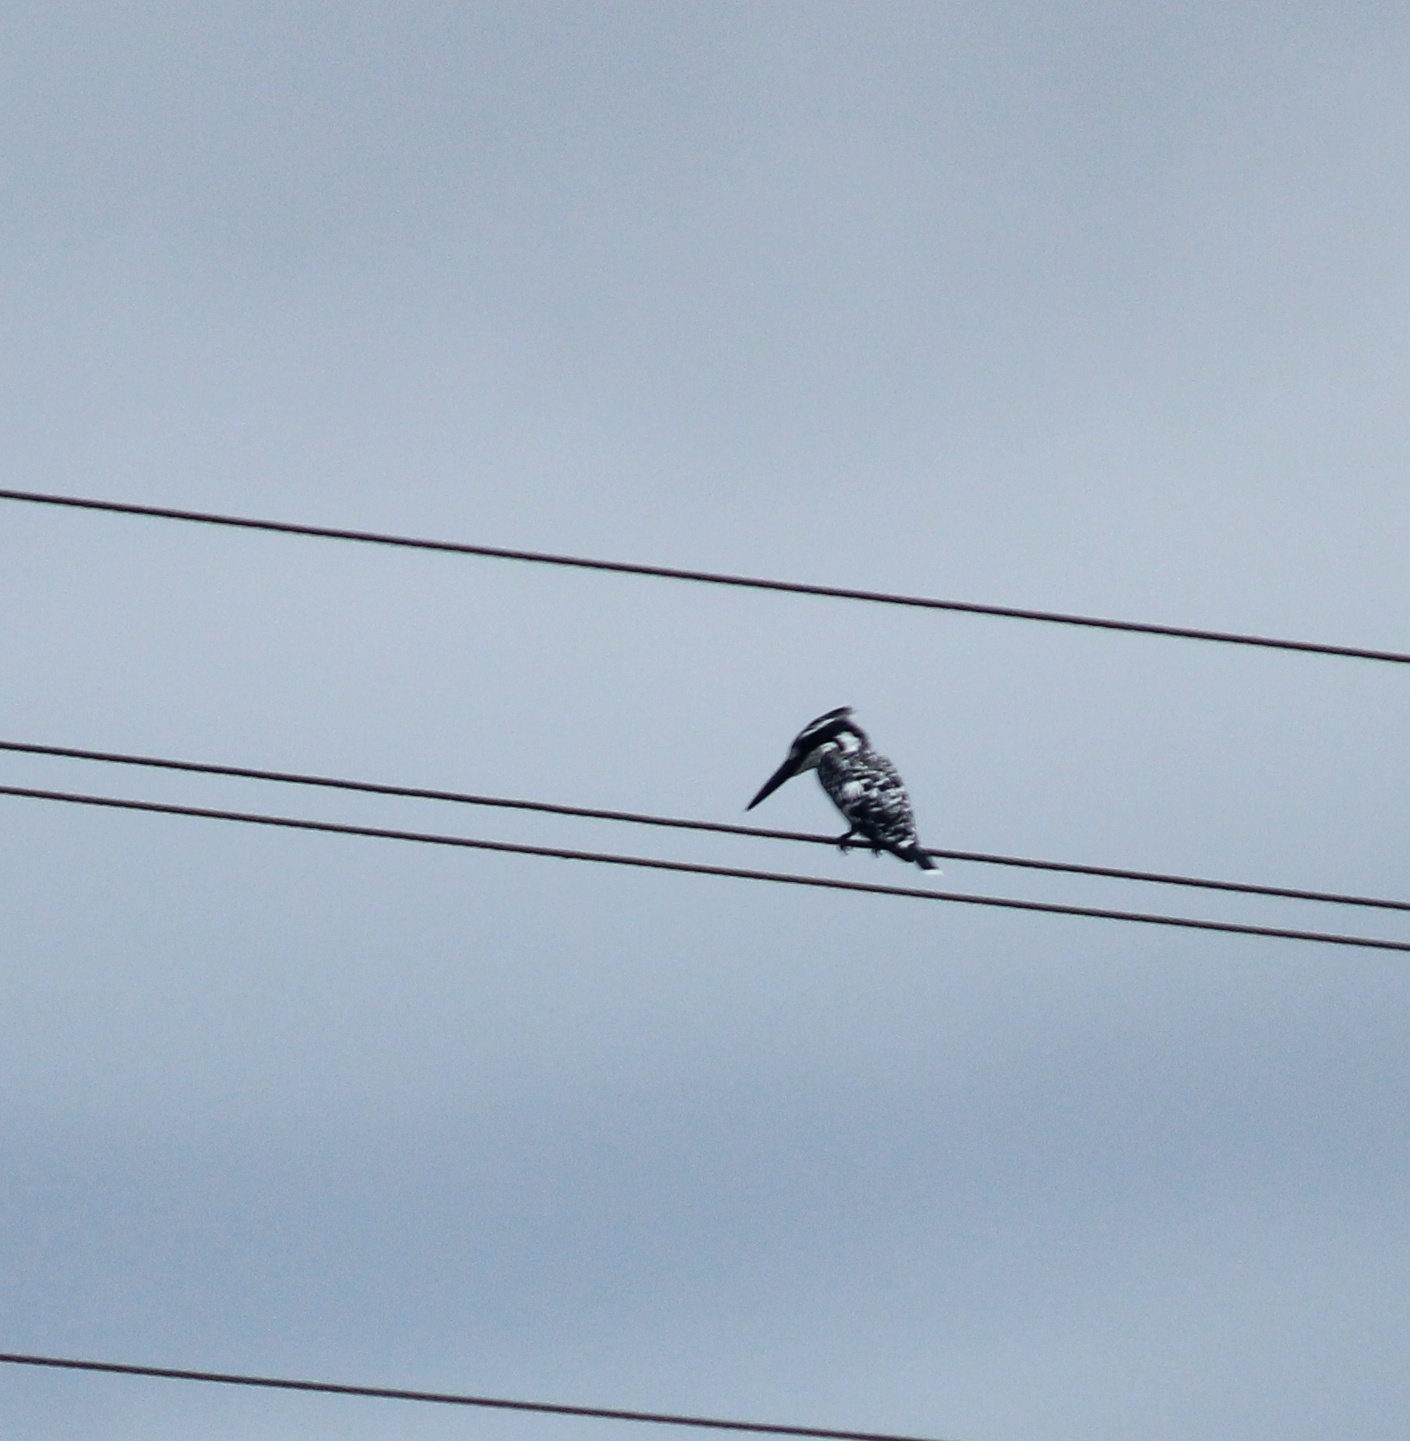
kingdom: Animalia
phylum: Chordata
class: Aves
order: Coraciiformes
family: Alcedinidae
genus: Ceryle
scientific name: Ceryle rudis
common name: Pied kingfisher
